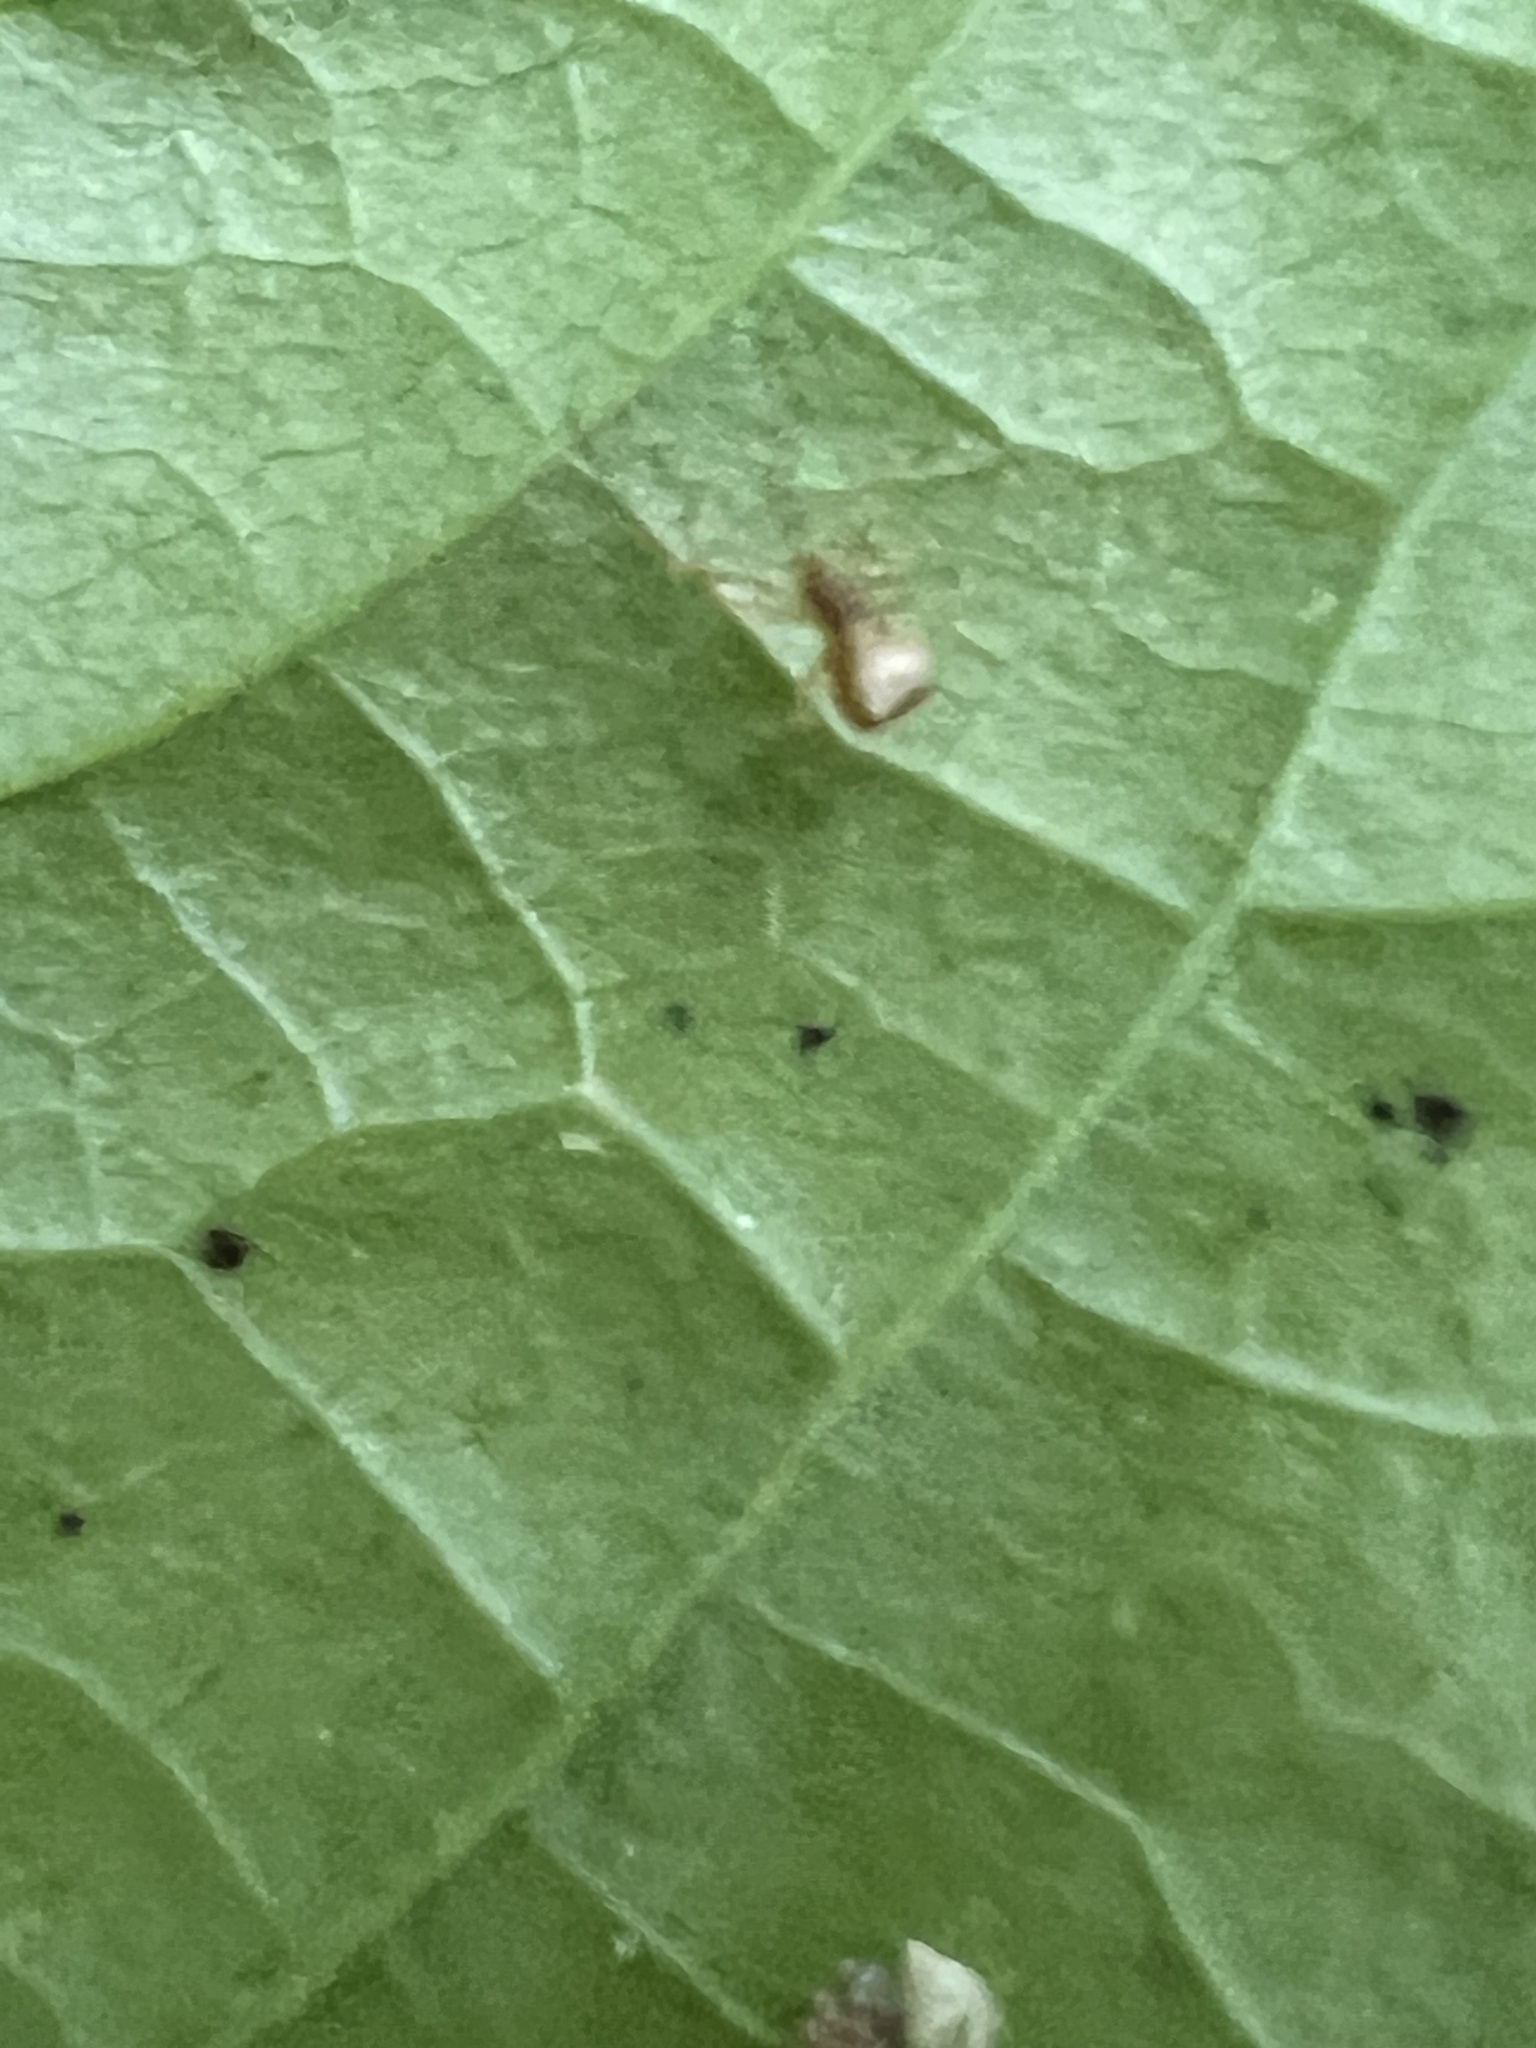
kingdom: Animalia
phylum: Arthropoda
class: Arachnida
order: Araneae
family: Theridiidae
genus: Neospintharus
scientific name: Neospintharus trigonum
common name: Horned parasitic cobweaver
